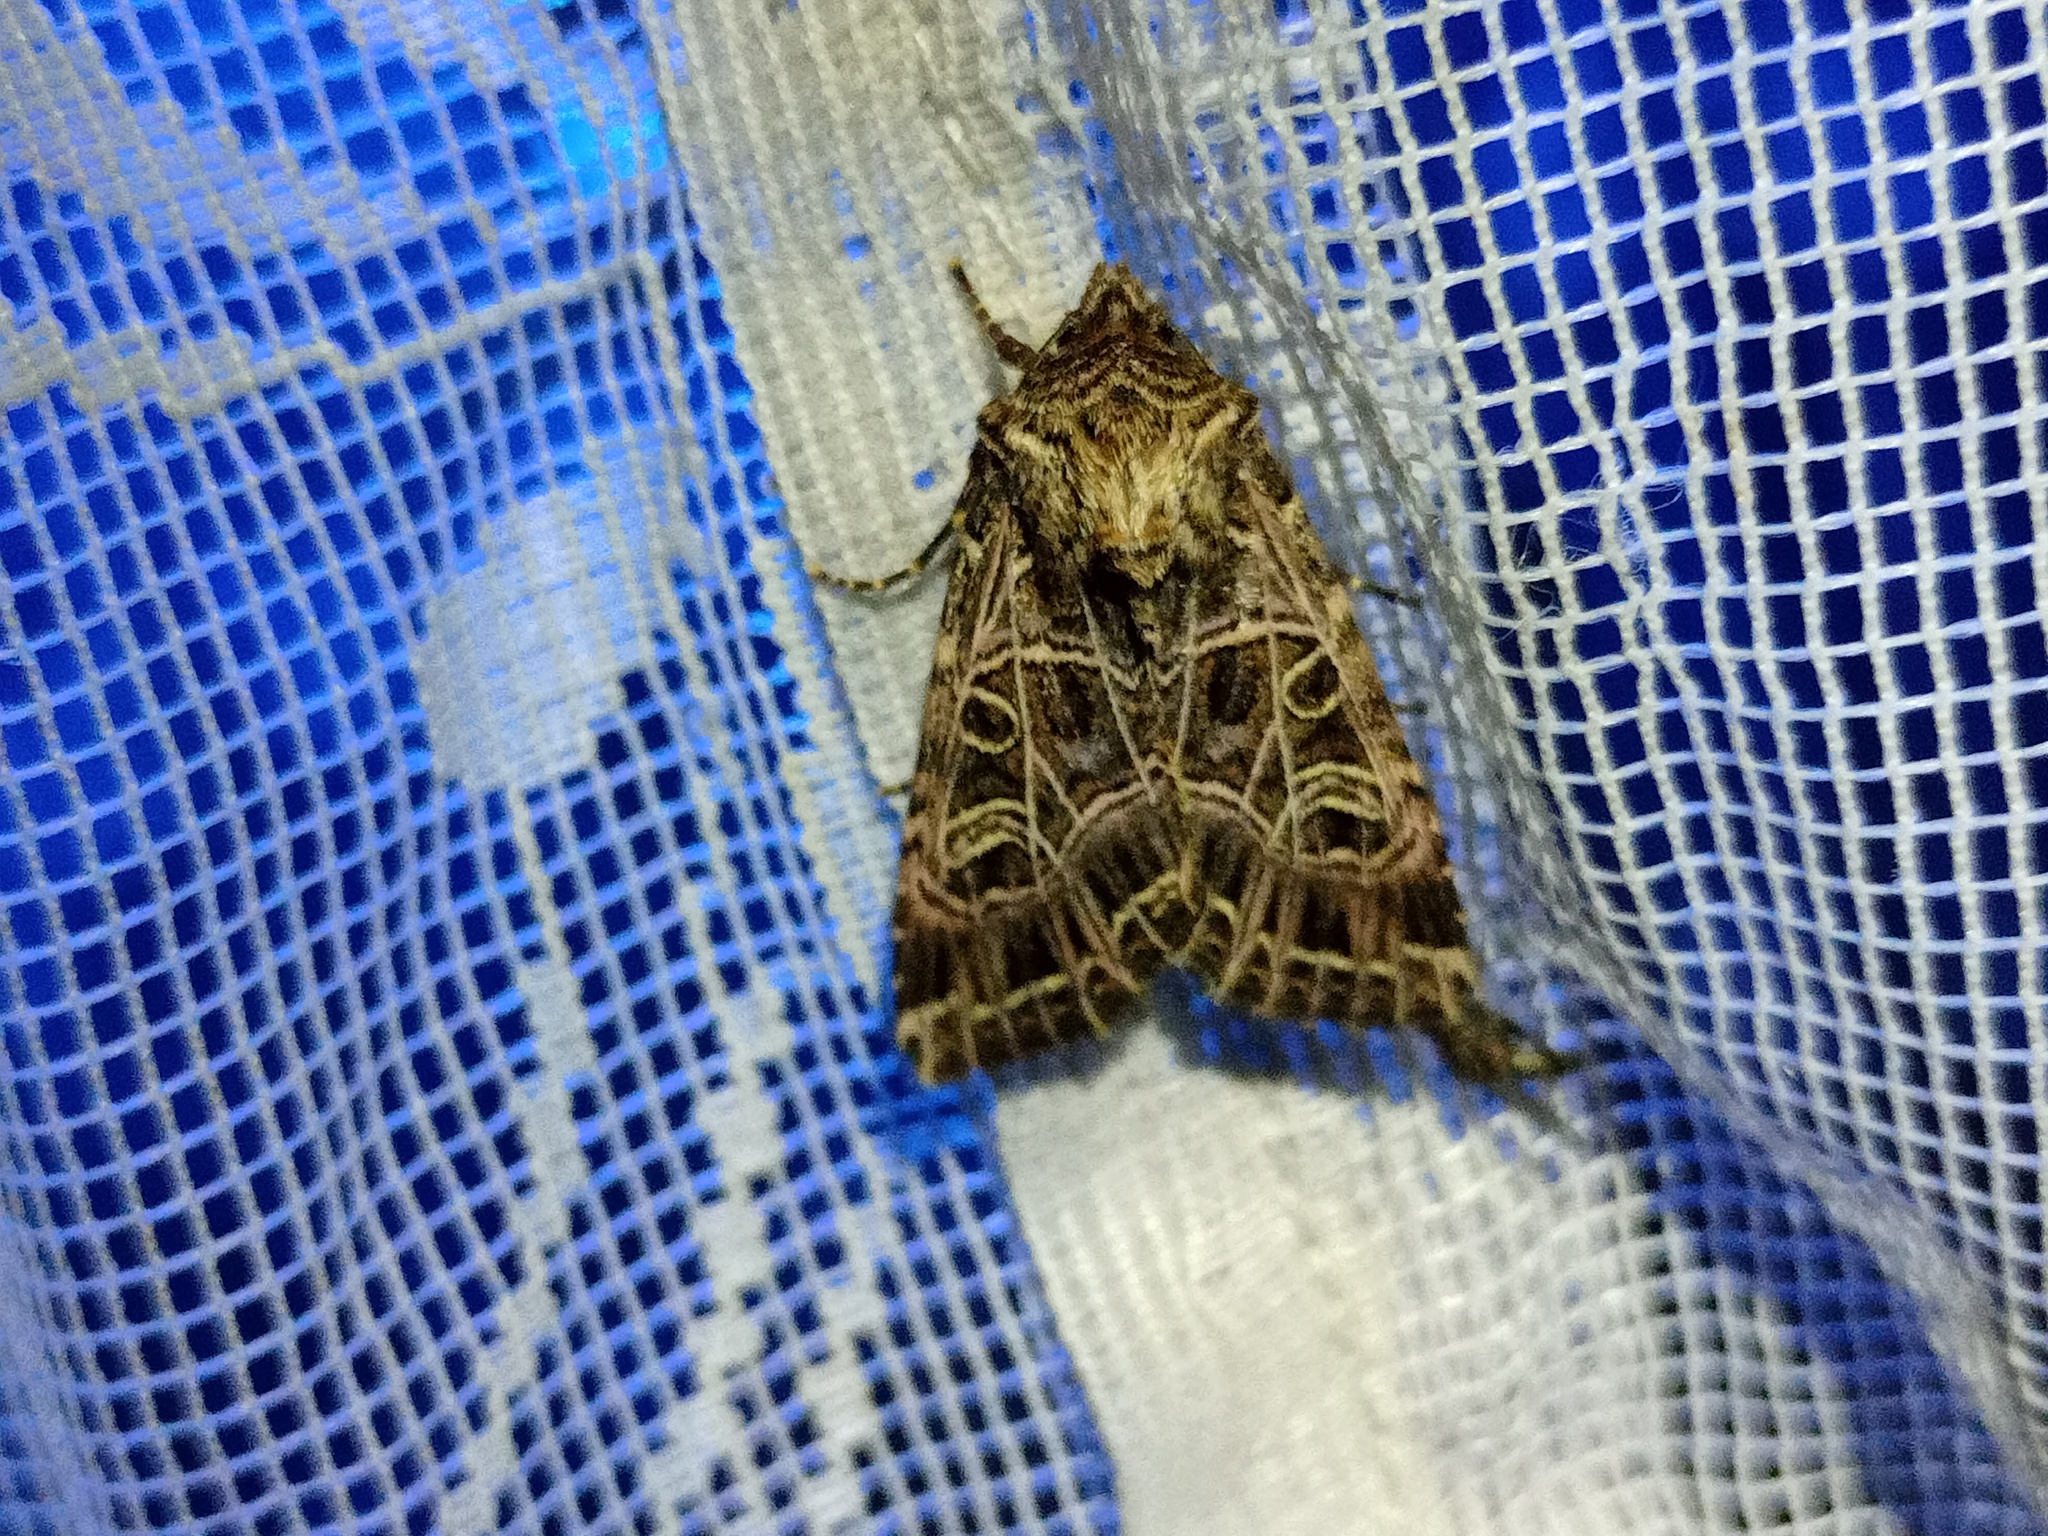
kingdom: Animalia
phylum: Arthropoda
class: Insecta
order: Lepidoptera
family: Noctuidae
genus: Sideridis
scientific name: Sideridis reticulata
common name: Bordered gothic
